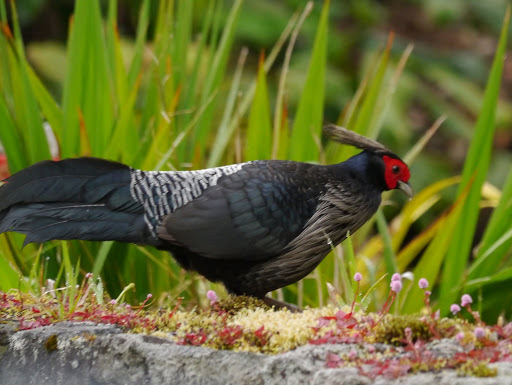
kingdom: Animalia
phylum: Chordata
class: Aves
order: Galliformes
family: Phasianidae
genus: Lophura
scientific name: Lophura leucomelanos
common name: Kalij pheasant
